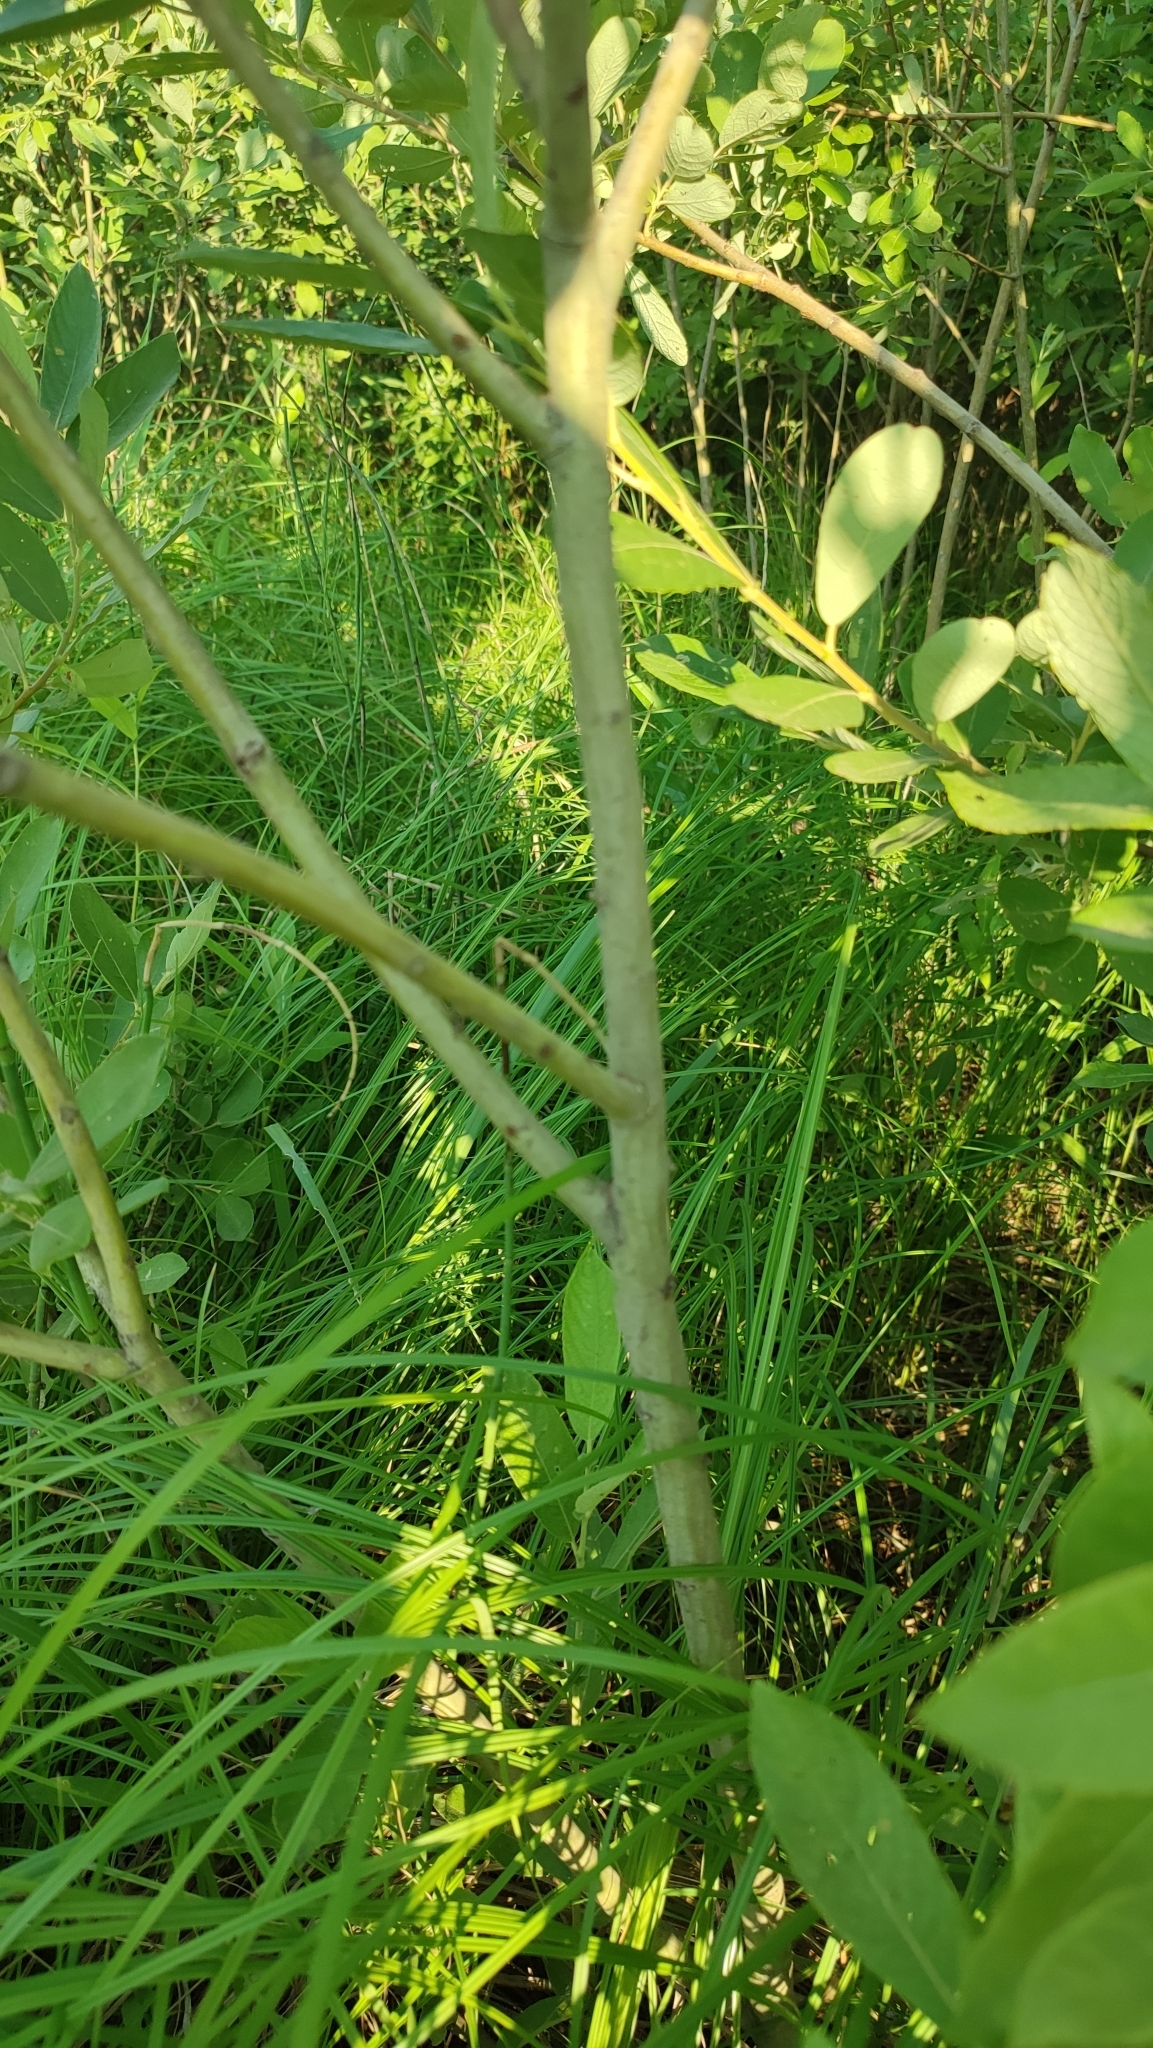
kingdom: Plantae
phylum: Tracheophyta
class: Magnoliopsida
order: Malpighiales
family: Salicaceae
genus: Salix
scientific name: Salix cinerea
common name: Common sallow
